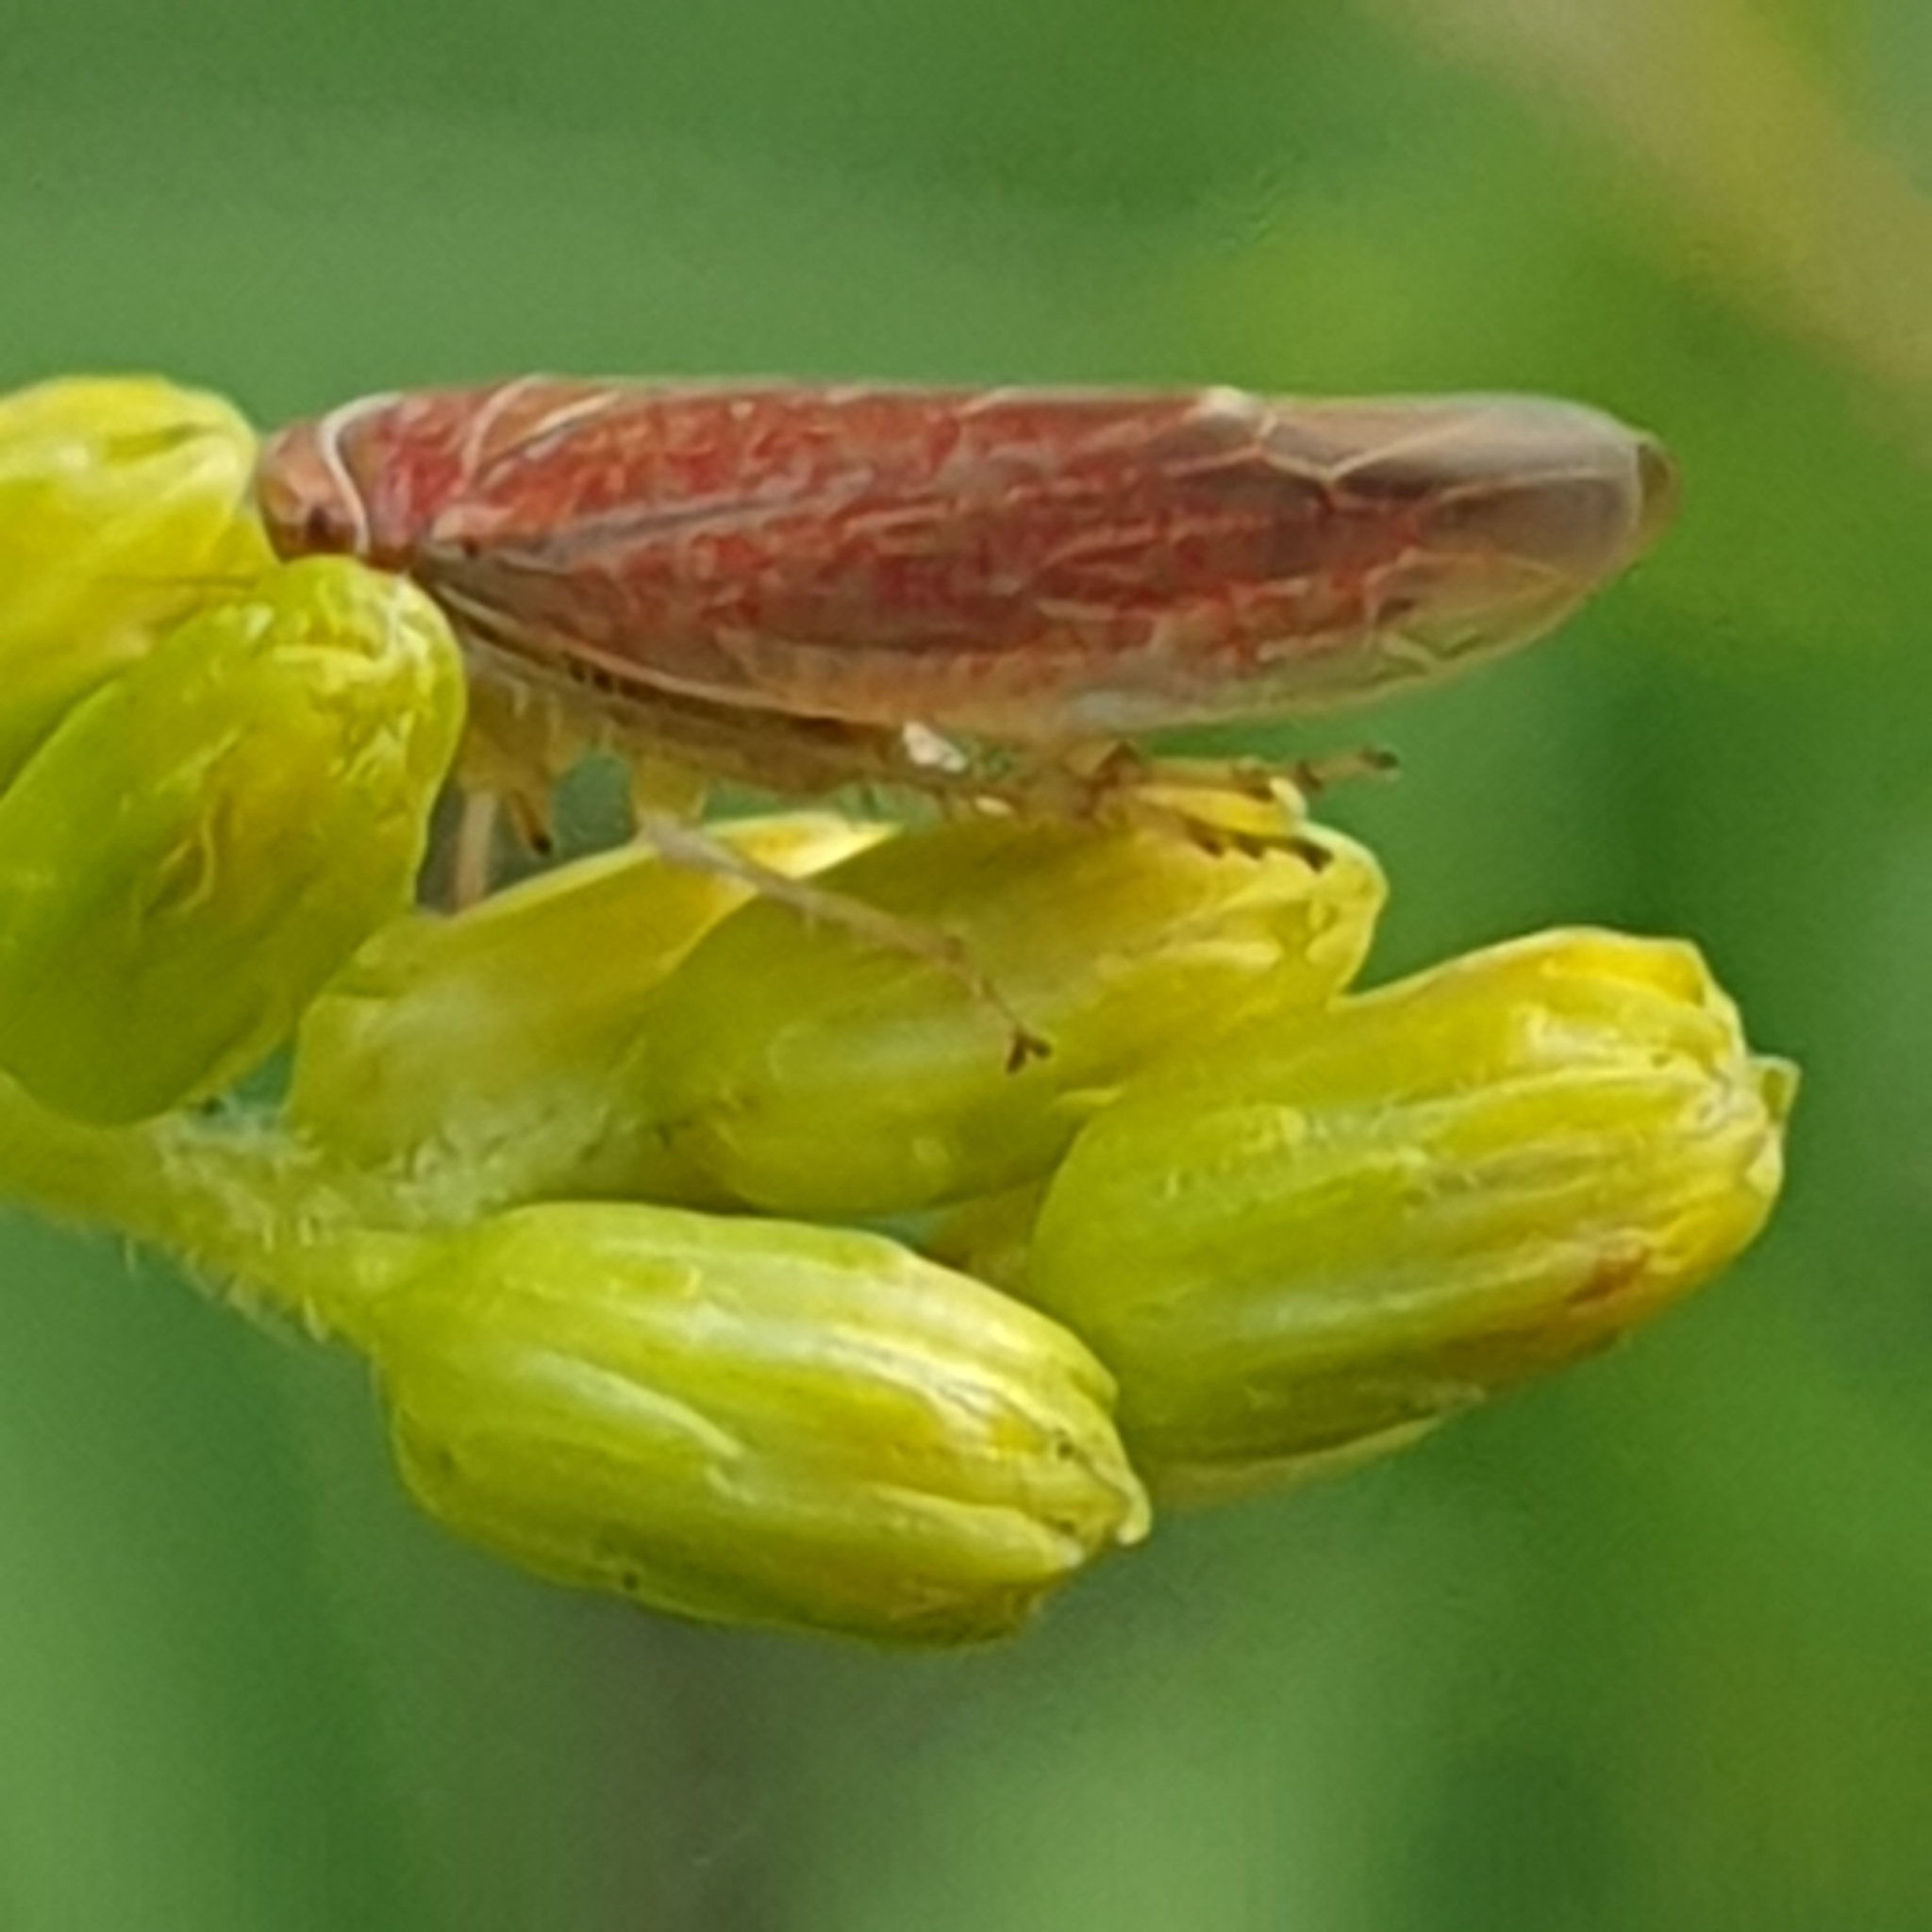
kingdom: Animalia
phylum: Arthropoda
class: Insecta
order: Hemiptera
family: Cicadellidae
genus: Idiodonus
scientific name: Idiodonus cruentatus
